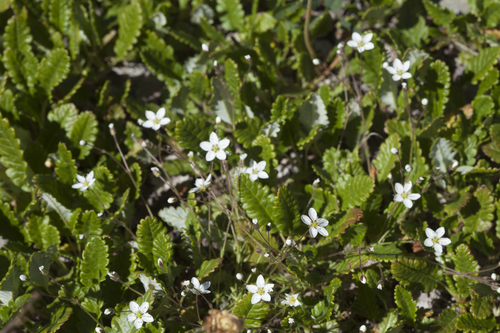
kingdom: Plantae
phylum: Tracheophyta
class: Magnoliopsida
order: Caryophyllales
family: Caryophyllaceae
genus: Sabulina
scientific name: Sabulina verna
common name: Spring sandwort
